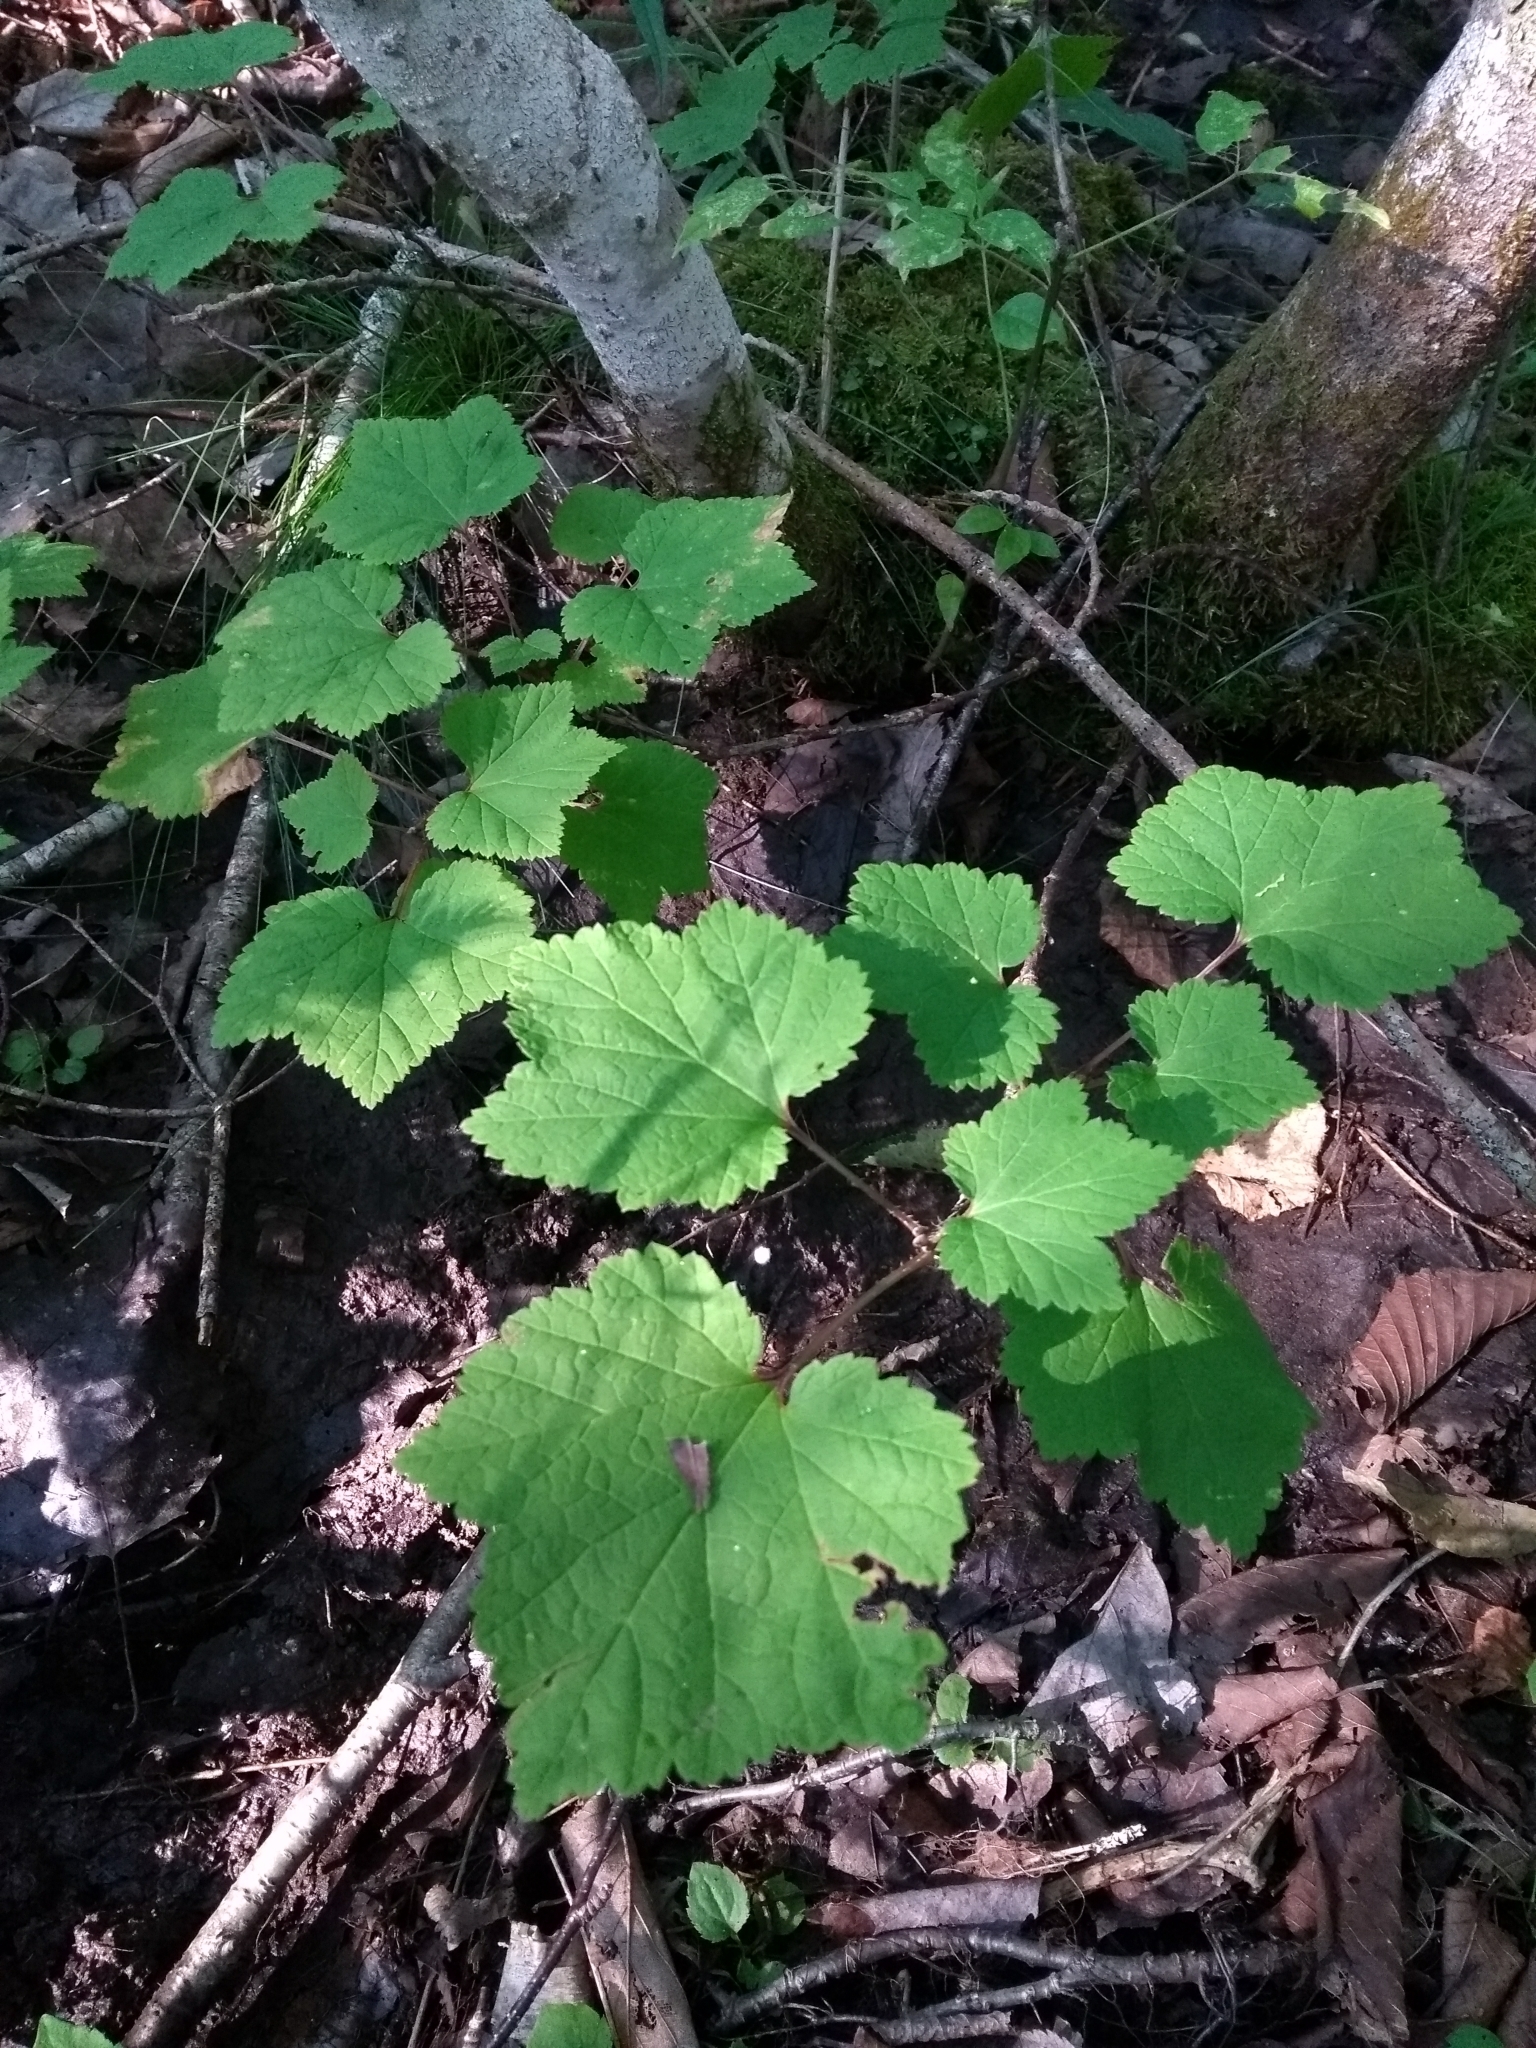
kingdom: Plantae
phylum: Tracheophyta
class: Magnoliopsida
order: Saxifragales
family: Grossulariaceae
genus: Ribes
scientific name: Ribes triste
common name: Swamp red currant
